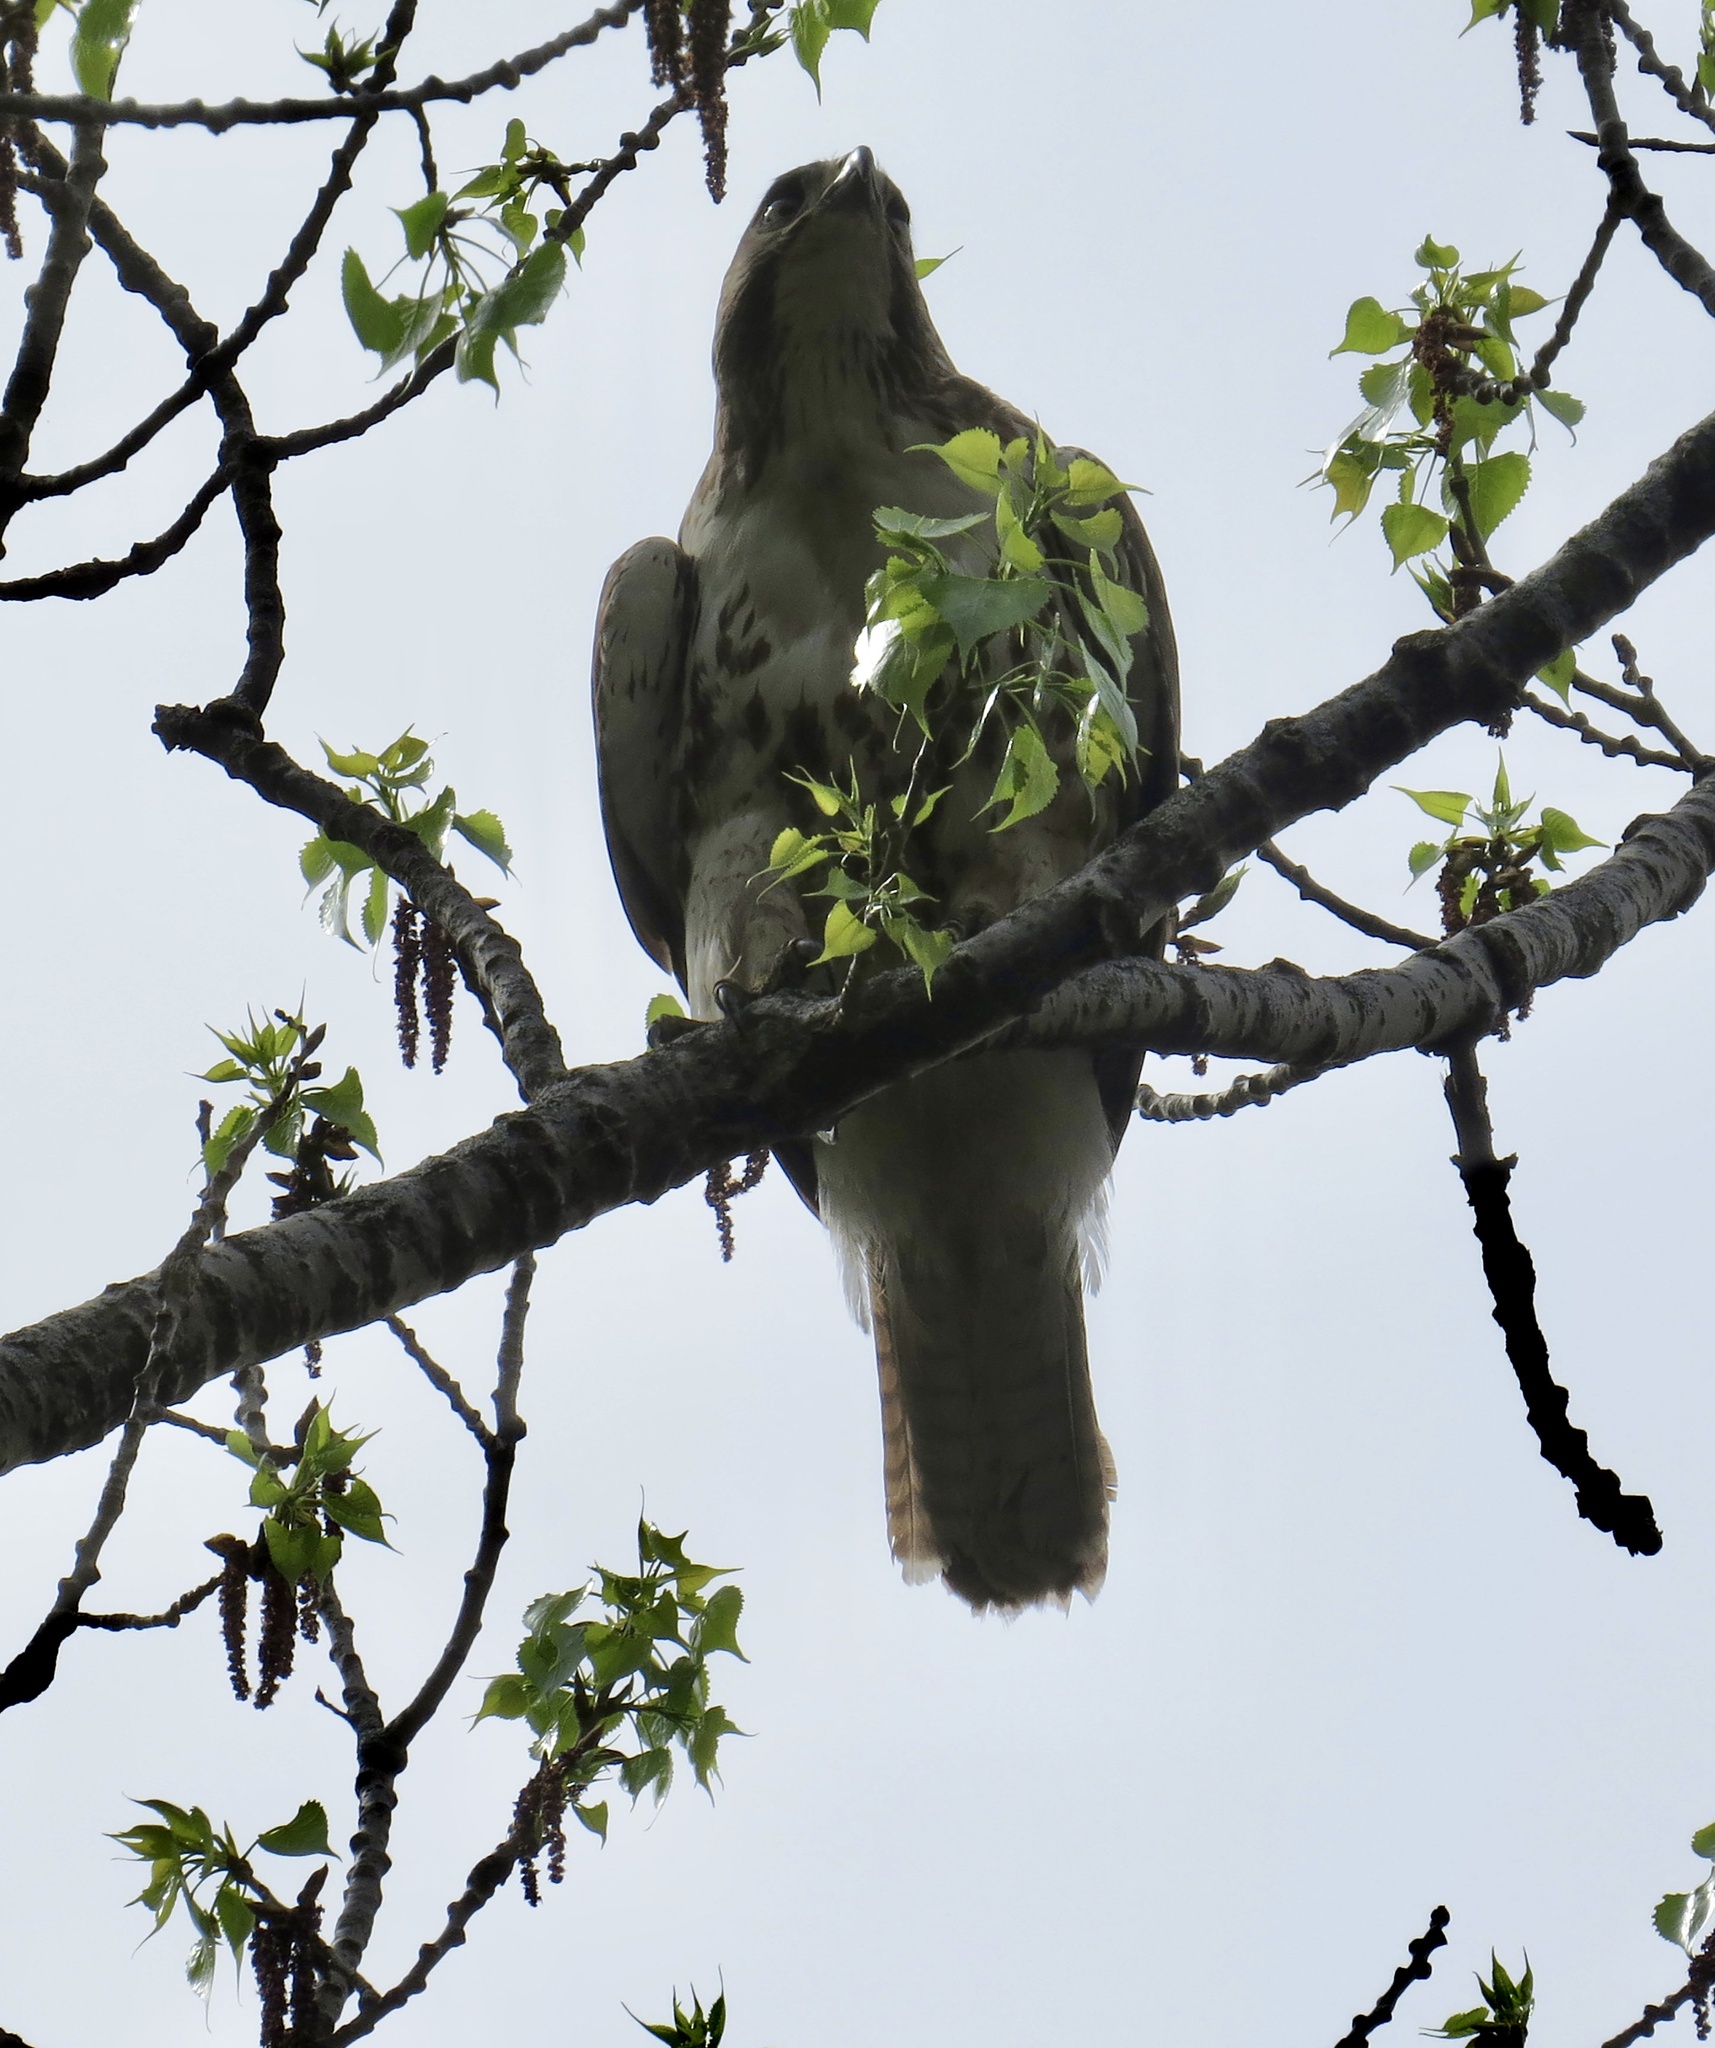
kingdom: Animalia
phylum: Chordata
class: Aves
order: Accipitriformes
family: Accipitridae
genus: Buteo
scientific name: Buteo jamaicensis
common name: Red-tailed hawk
